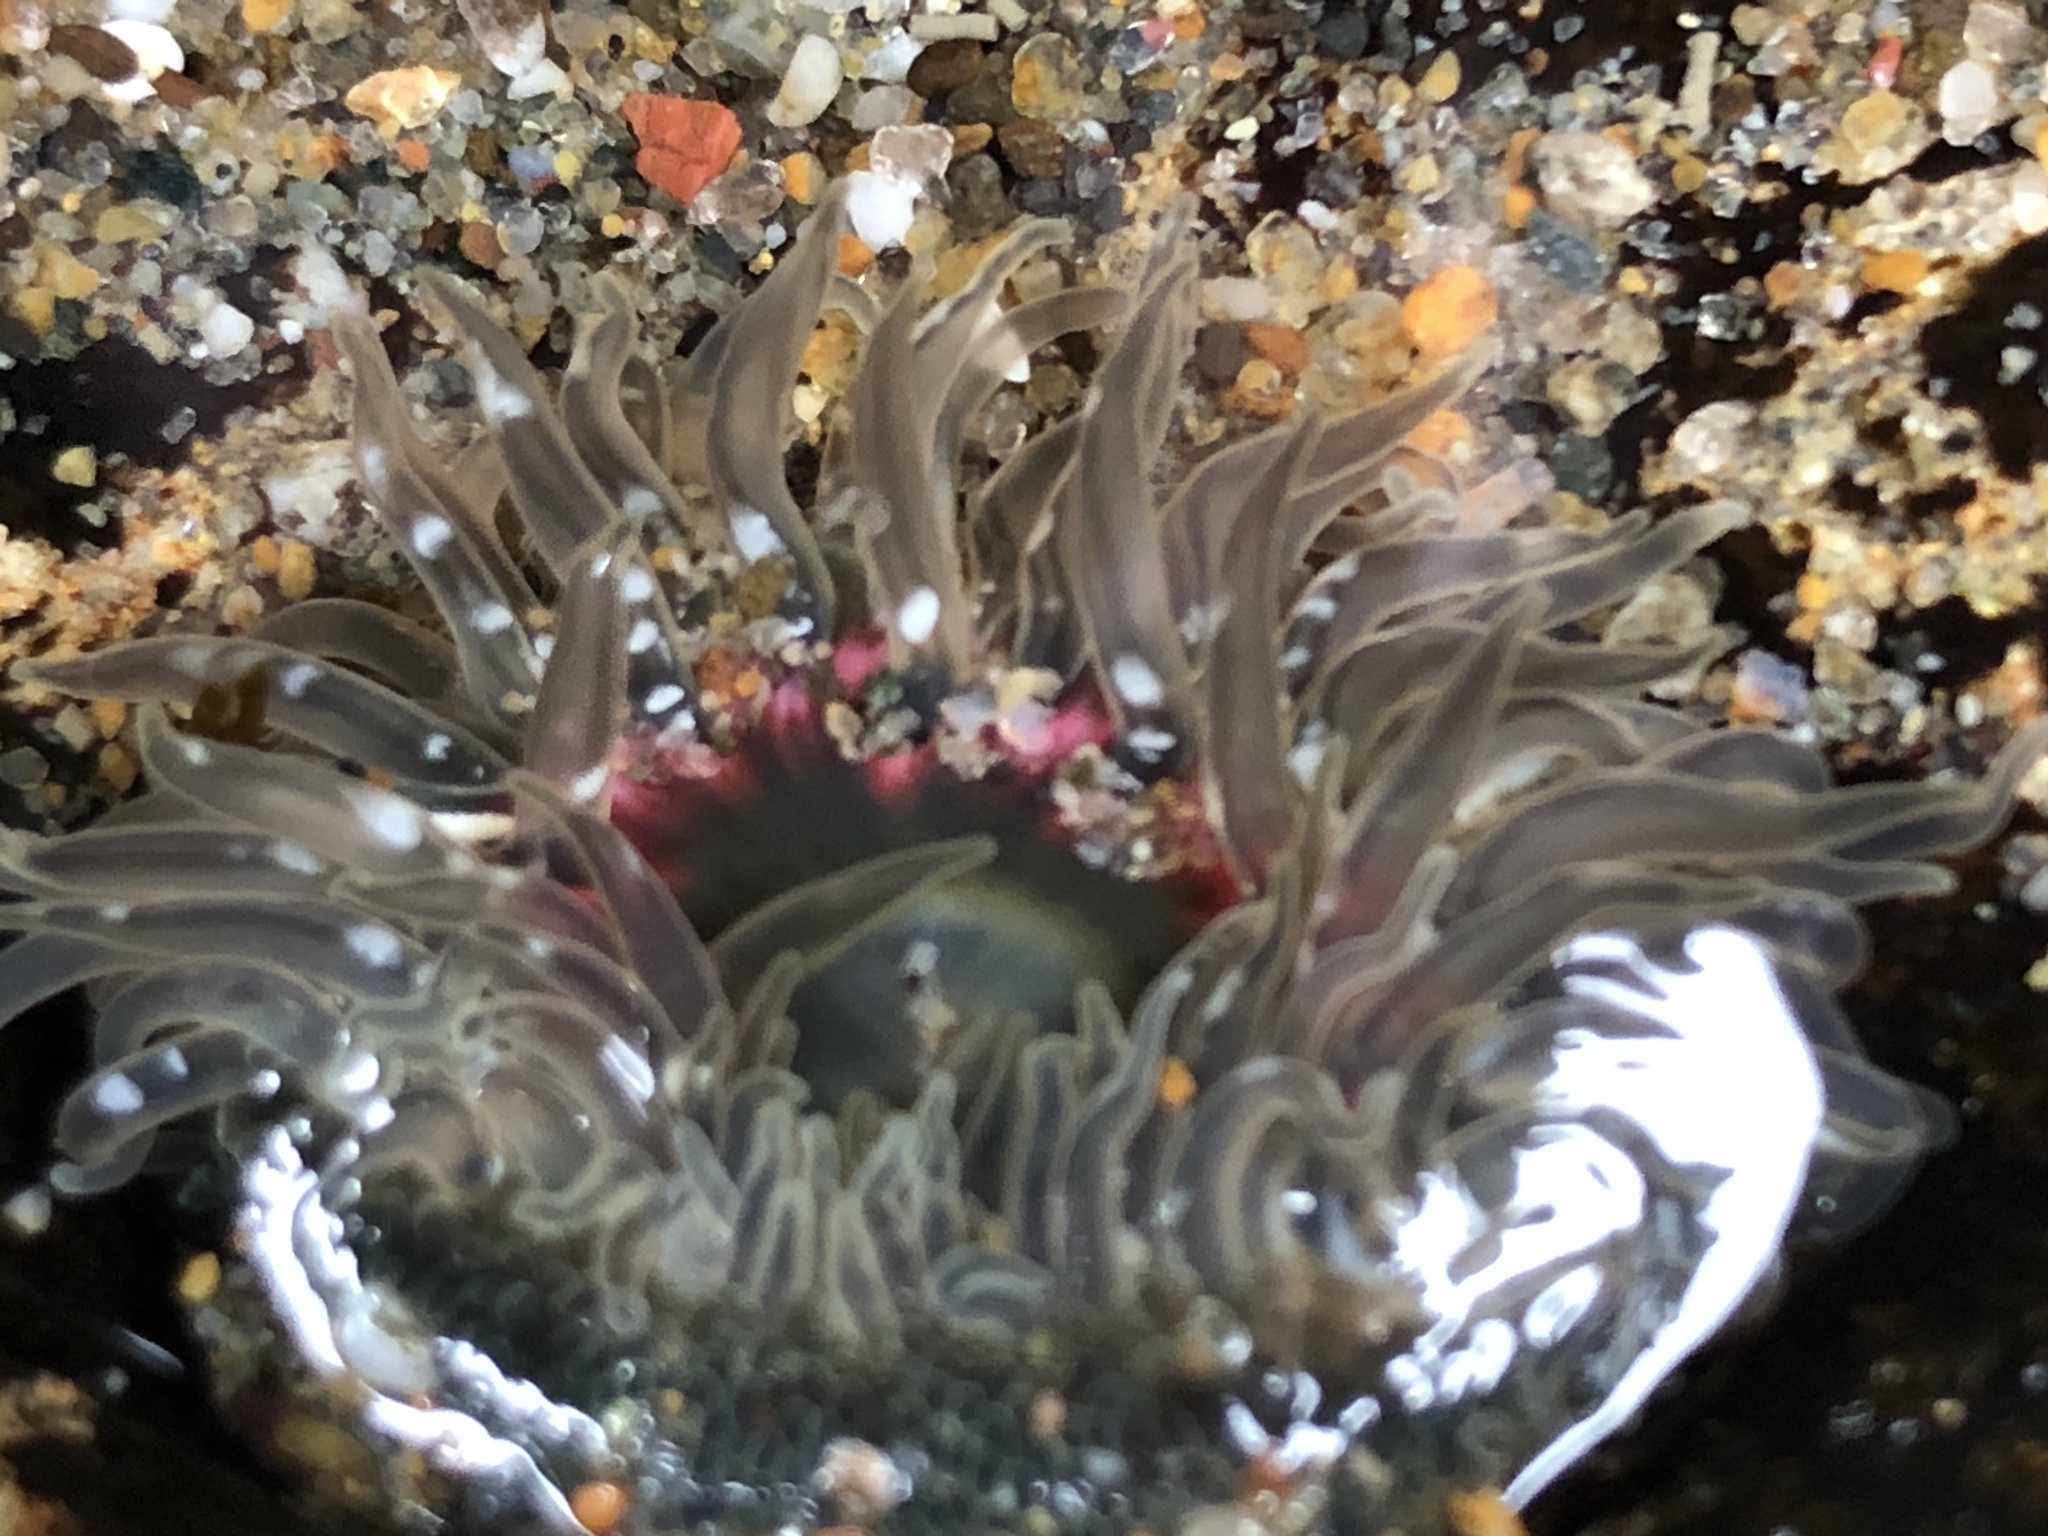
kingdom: Animalia
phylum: Cnidaria
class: Anthozoa
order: Actiniaria
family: Actiniidae
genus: Anthopleura
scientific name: Anthopleura artemisia
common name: Buried sea anemone
